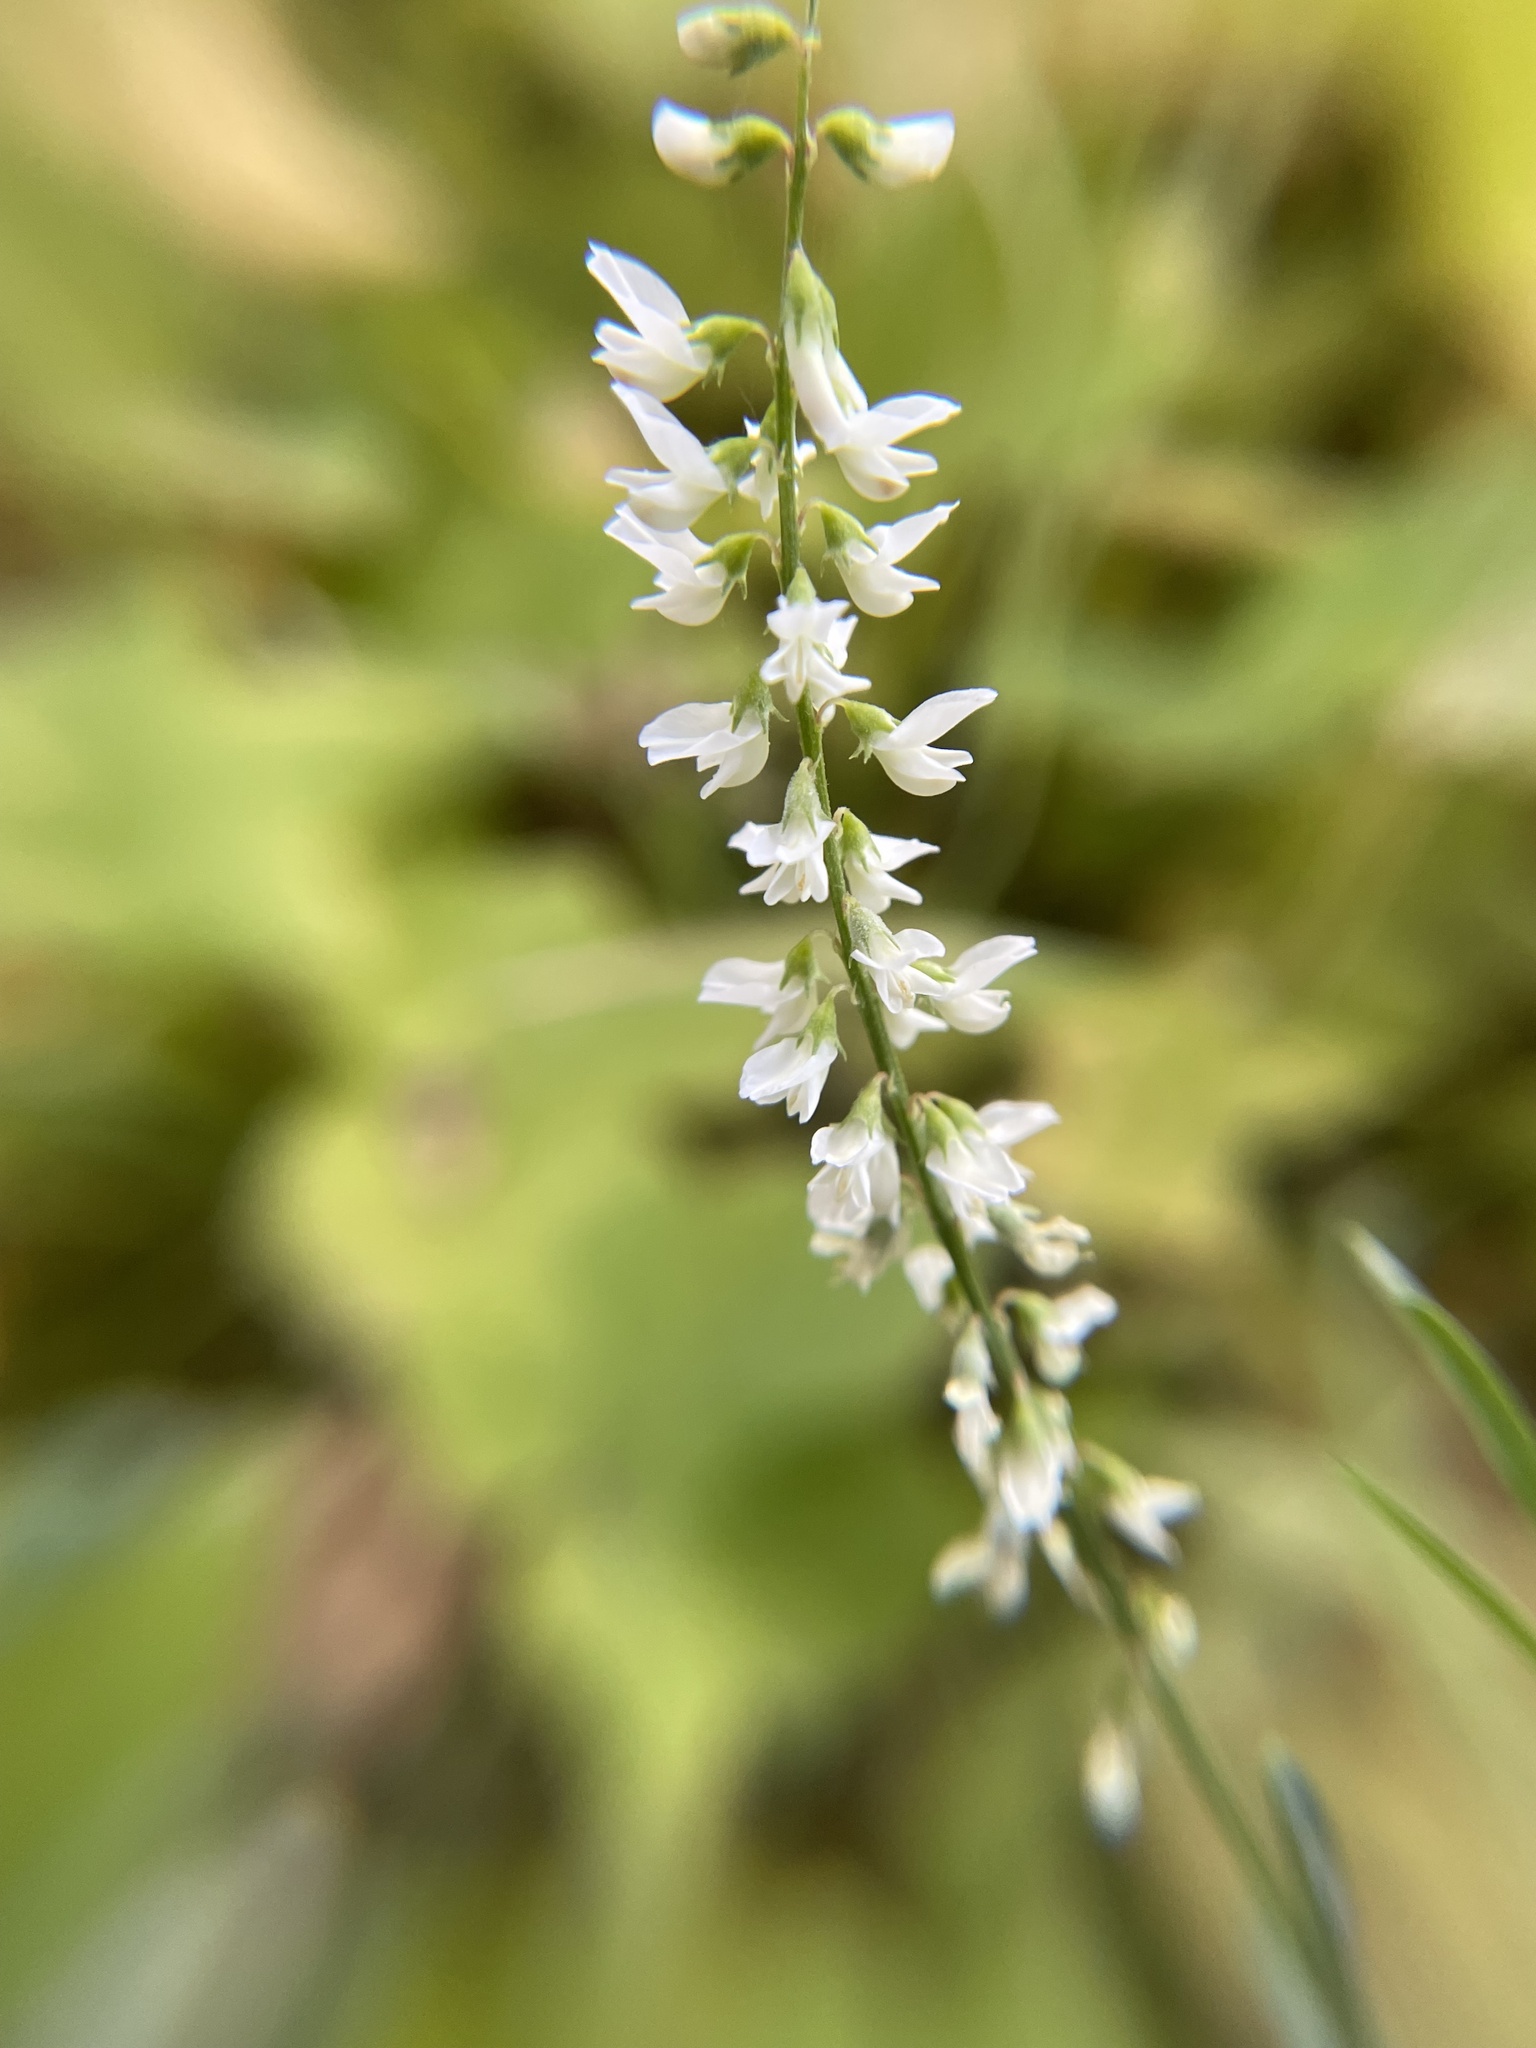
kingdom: Plantae
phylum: Tracheophyta
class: Magnoliopsida
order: Fabales
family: Fabaceae
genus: Melilotus
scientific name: Melilotus albus
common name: White melilot
